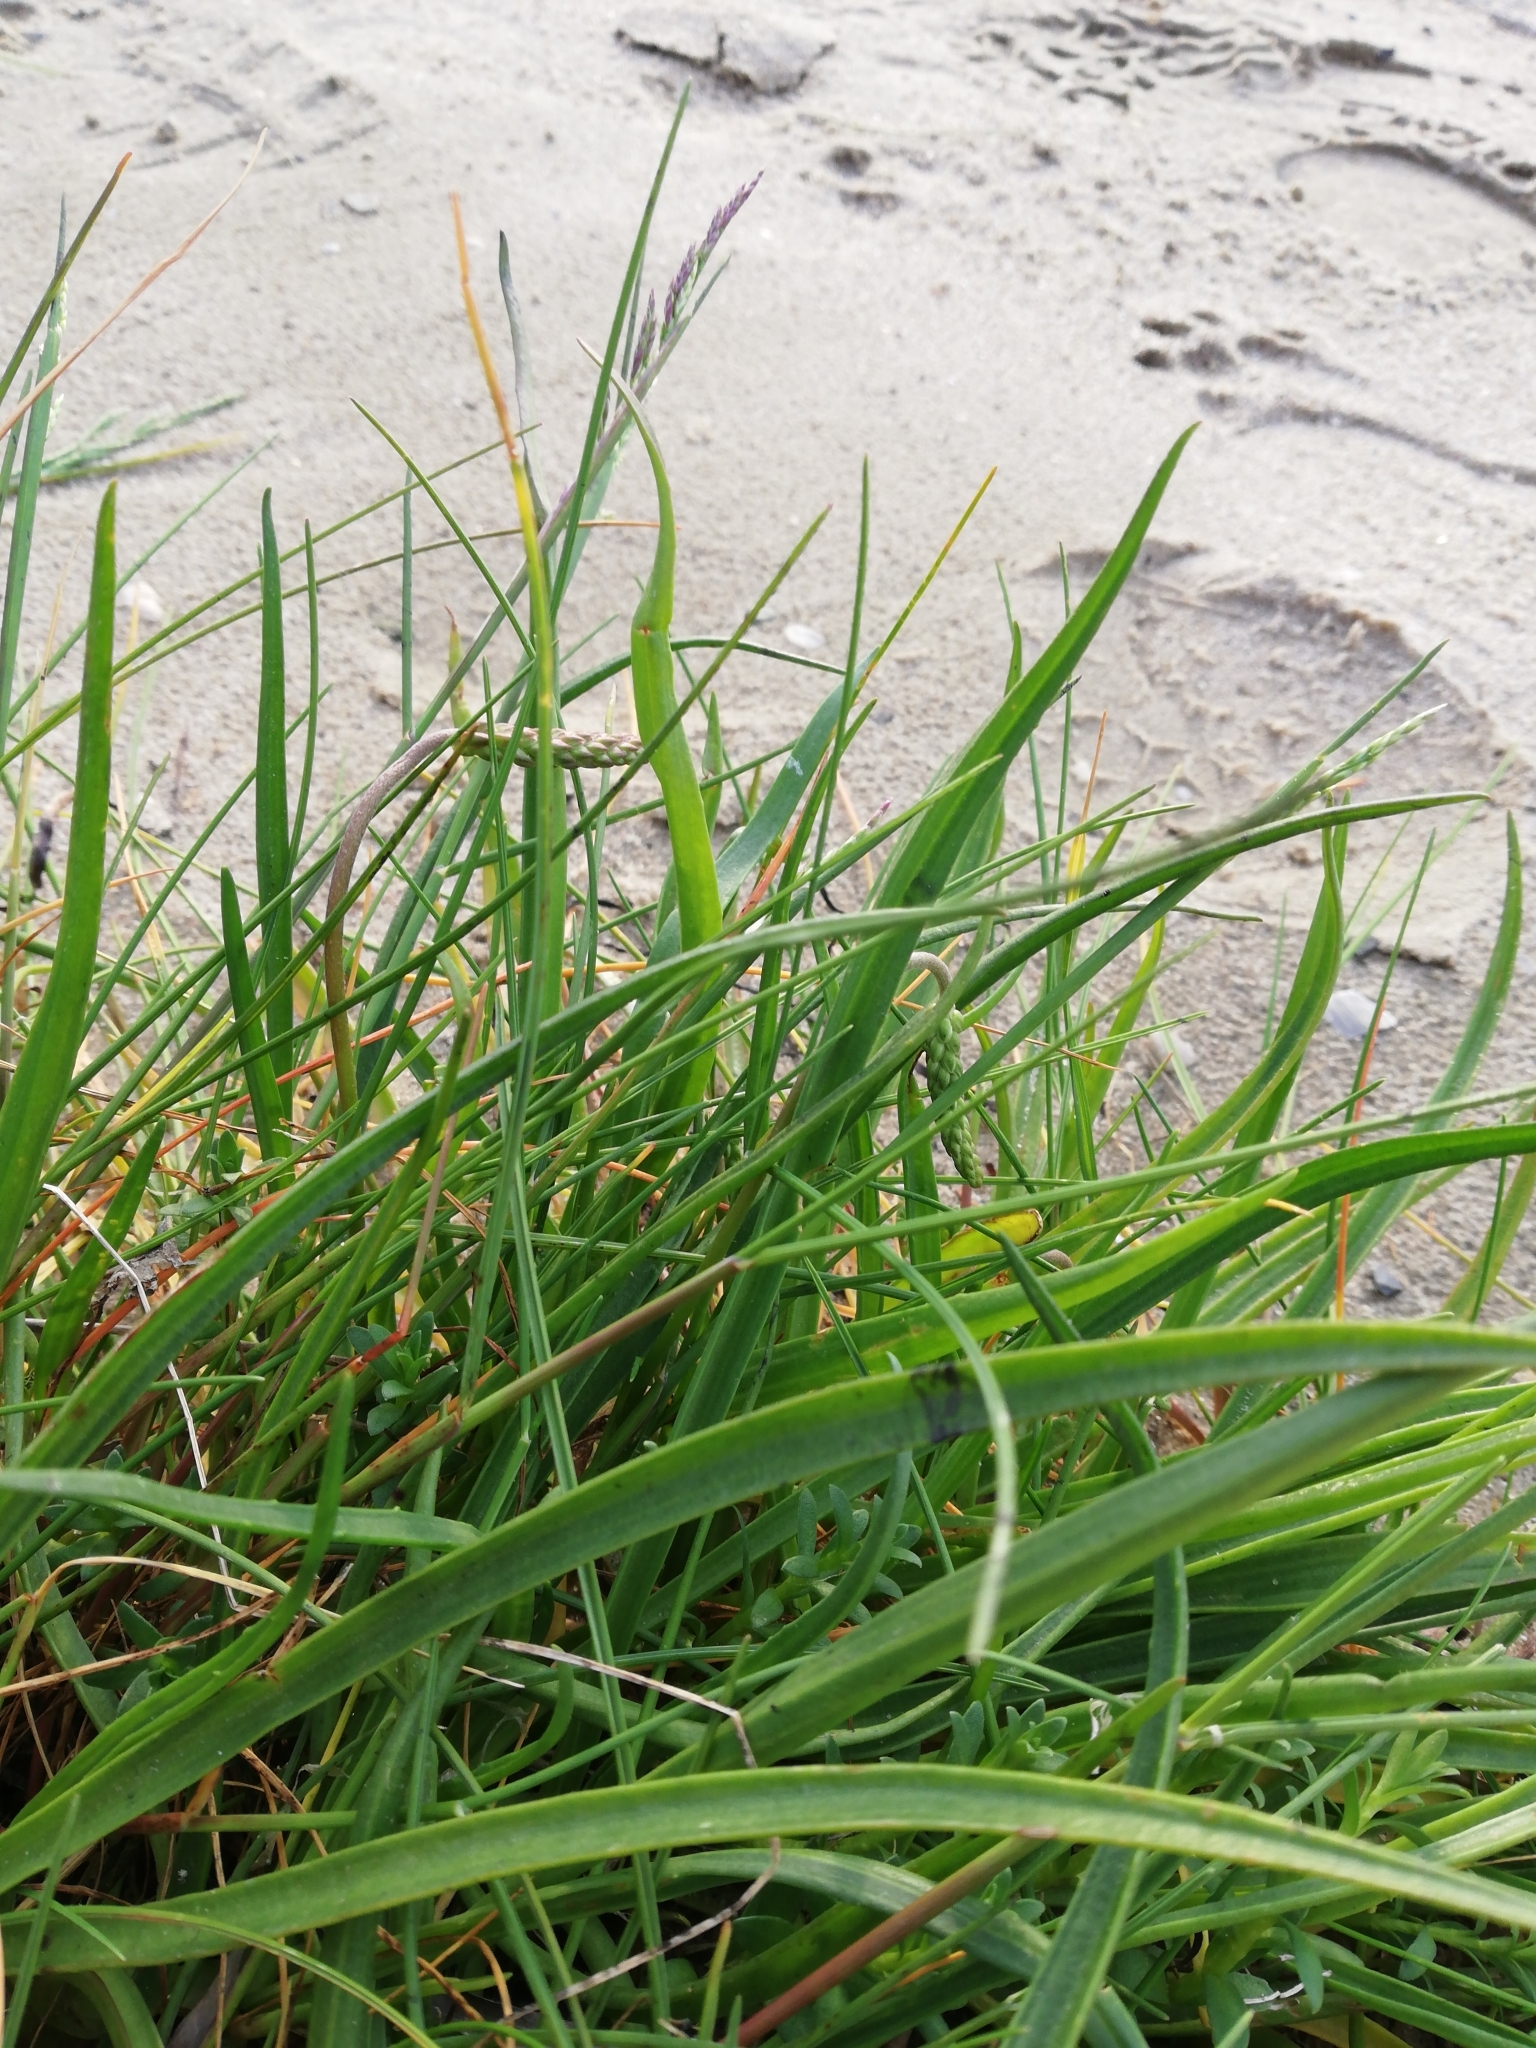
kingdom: Plantae
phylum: Tracheophyta
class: Magnoliopsida
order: Lamiales
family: Plantaginaceae
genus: Plantago
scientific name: Plantago maritima
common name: Sea plantain
